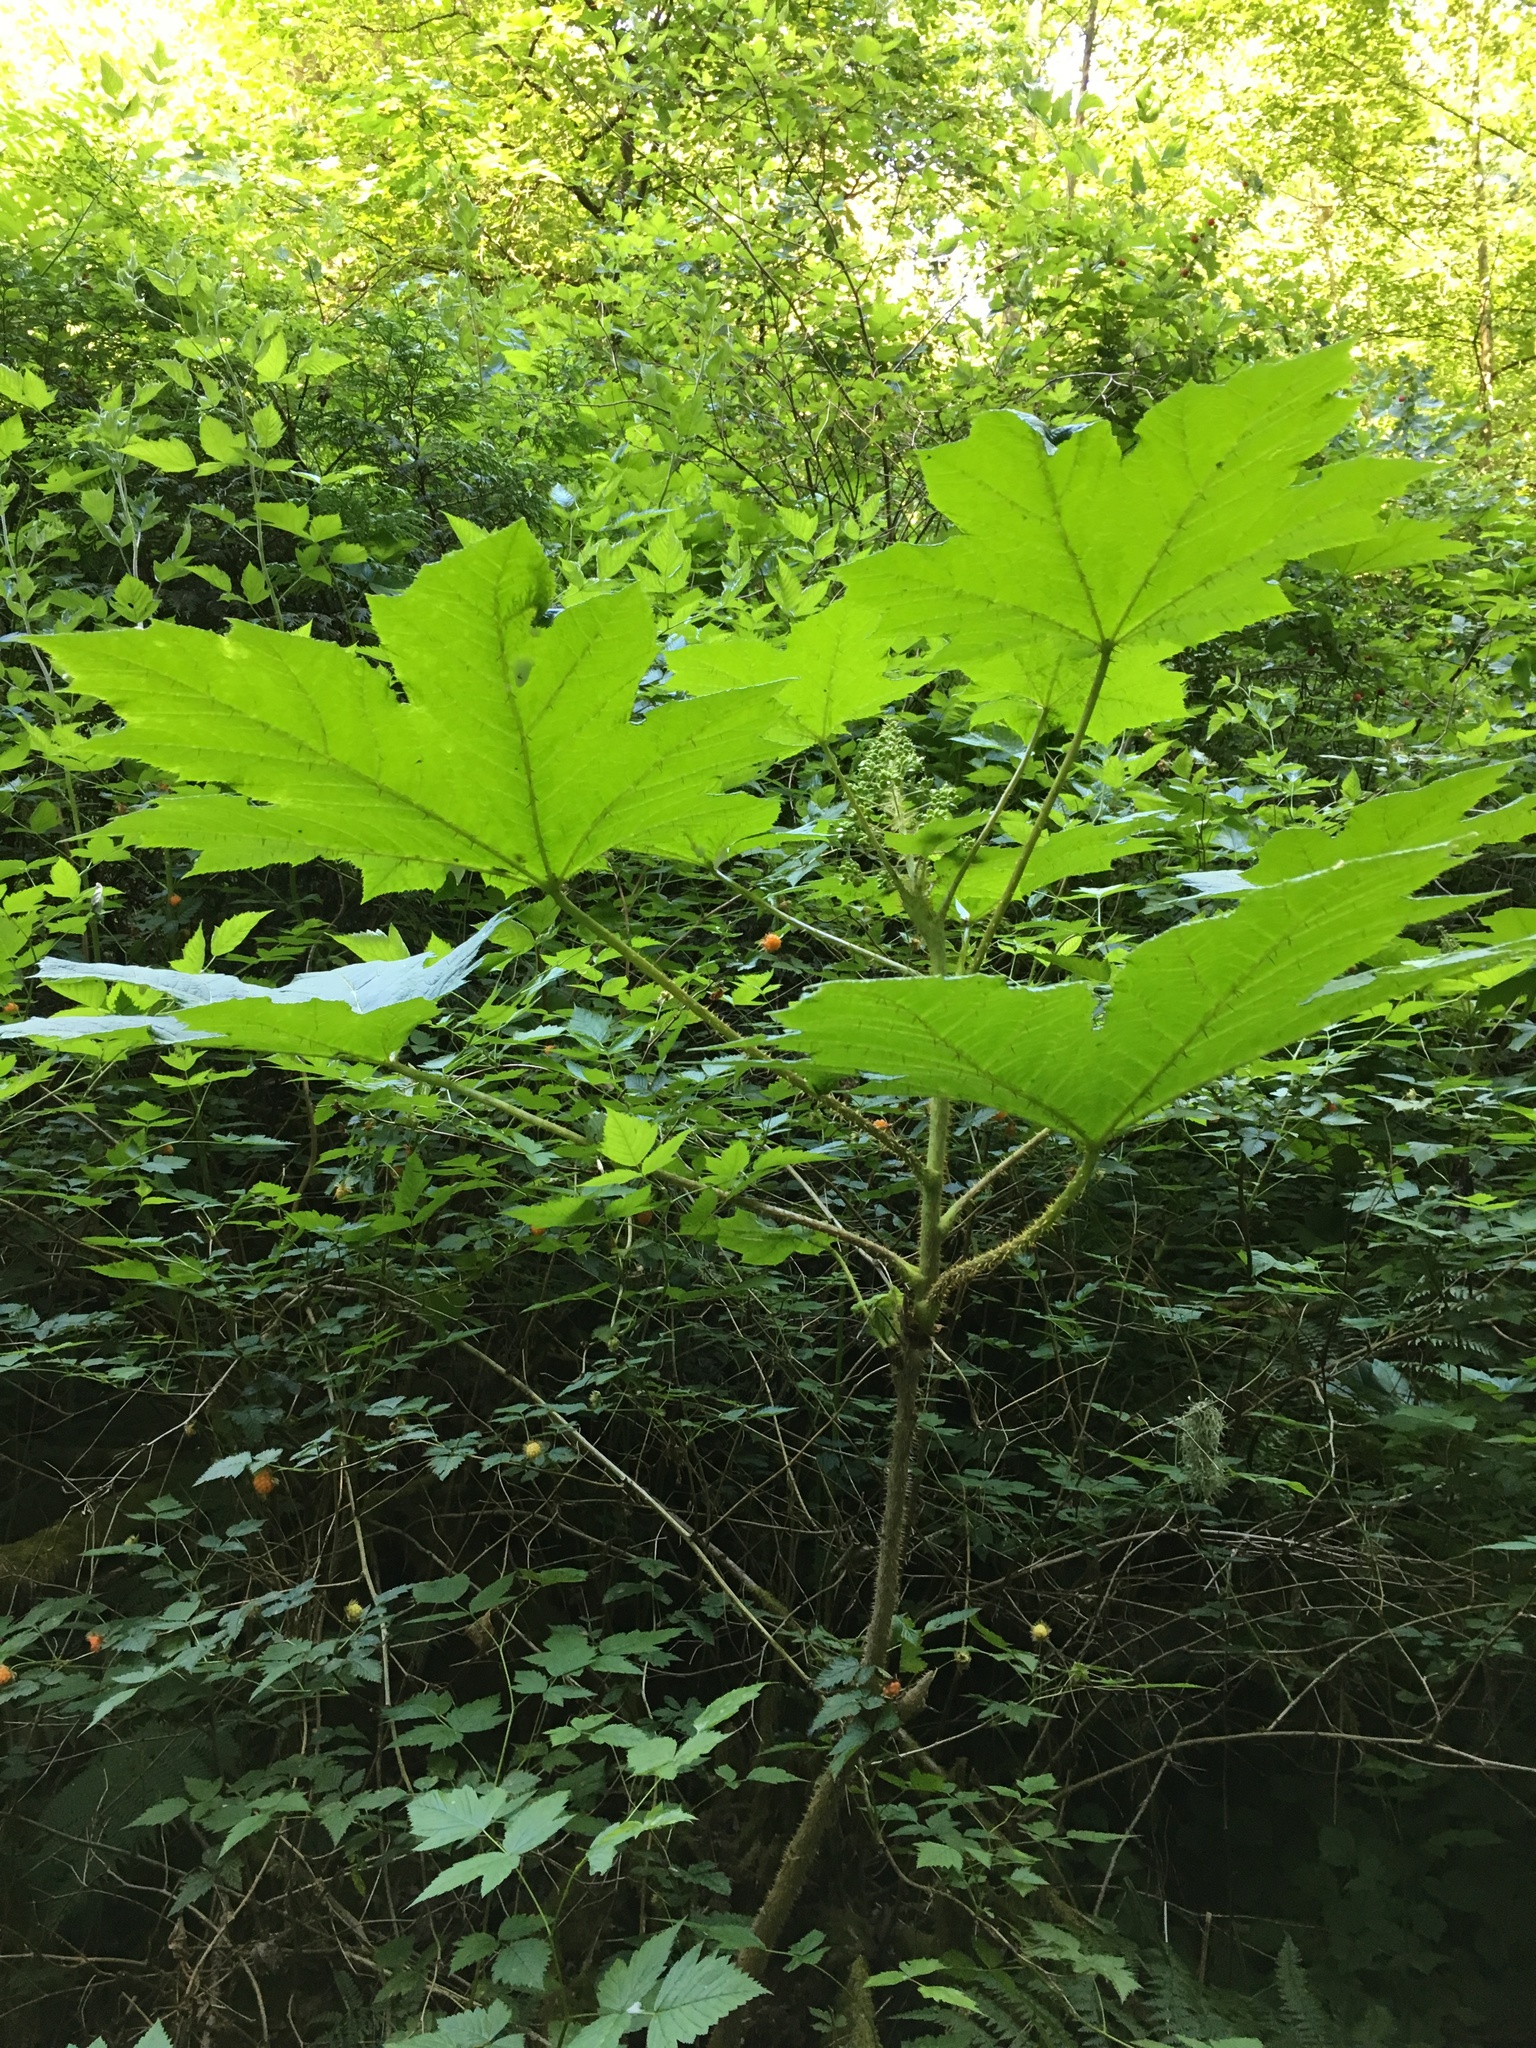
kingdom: Plantae
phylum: Tracheophyta
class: Magnoliopsida
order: Apiales
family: Araliaceae
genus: Oplopanax
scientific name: Oplopanax horridus
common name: Devil's walking-stick
